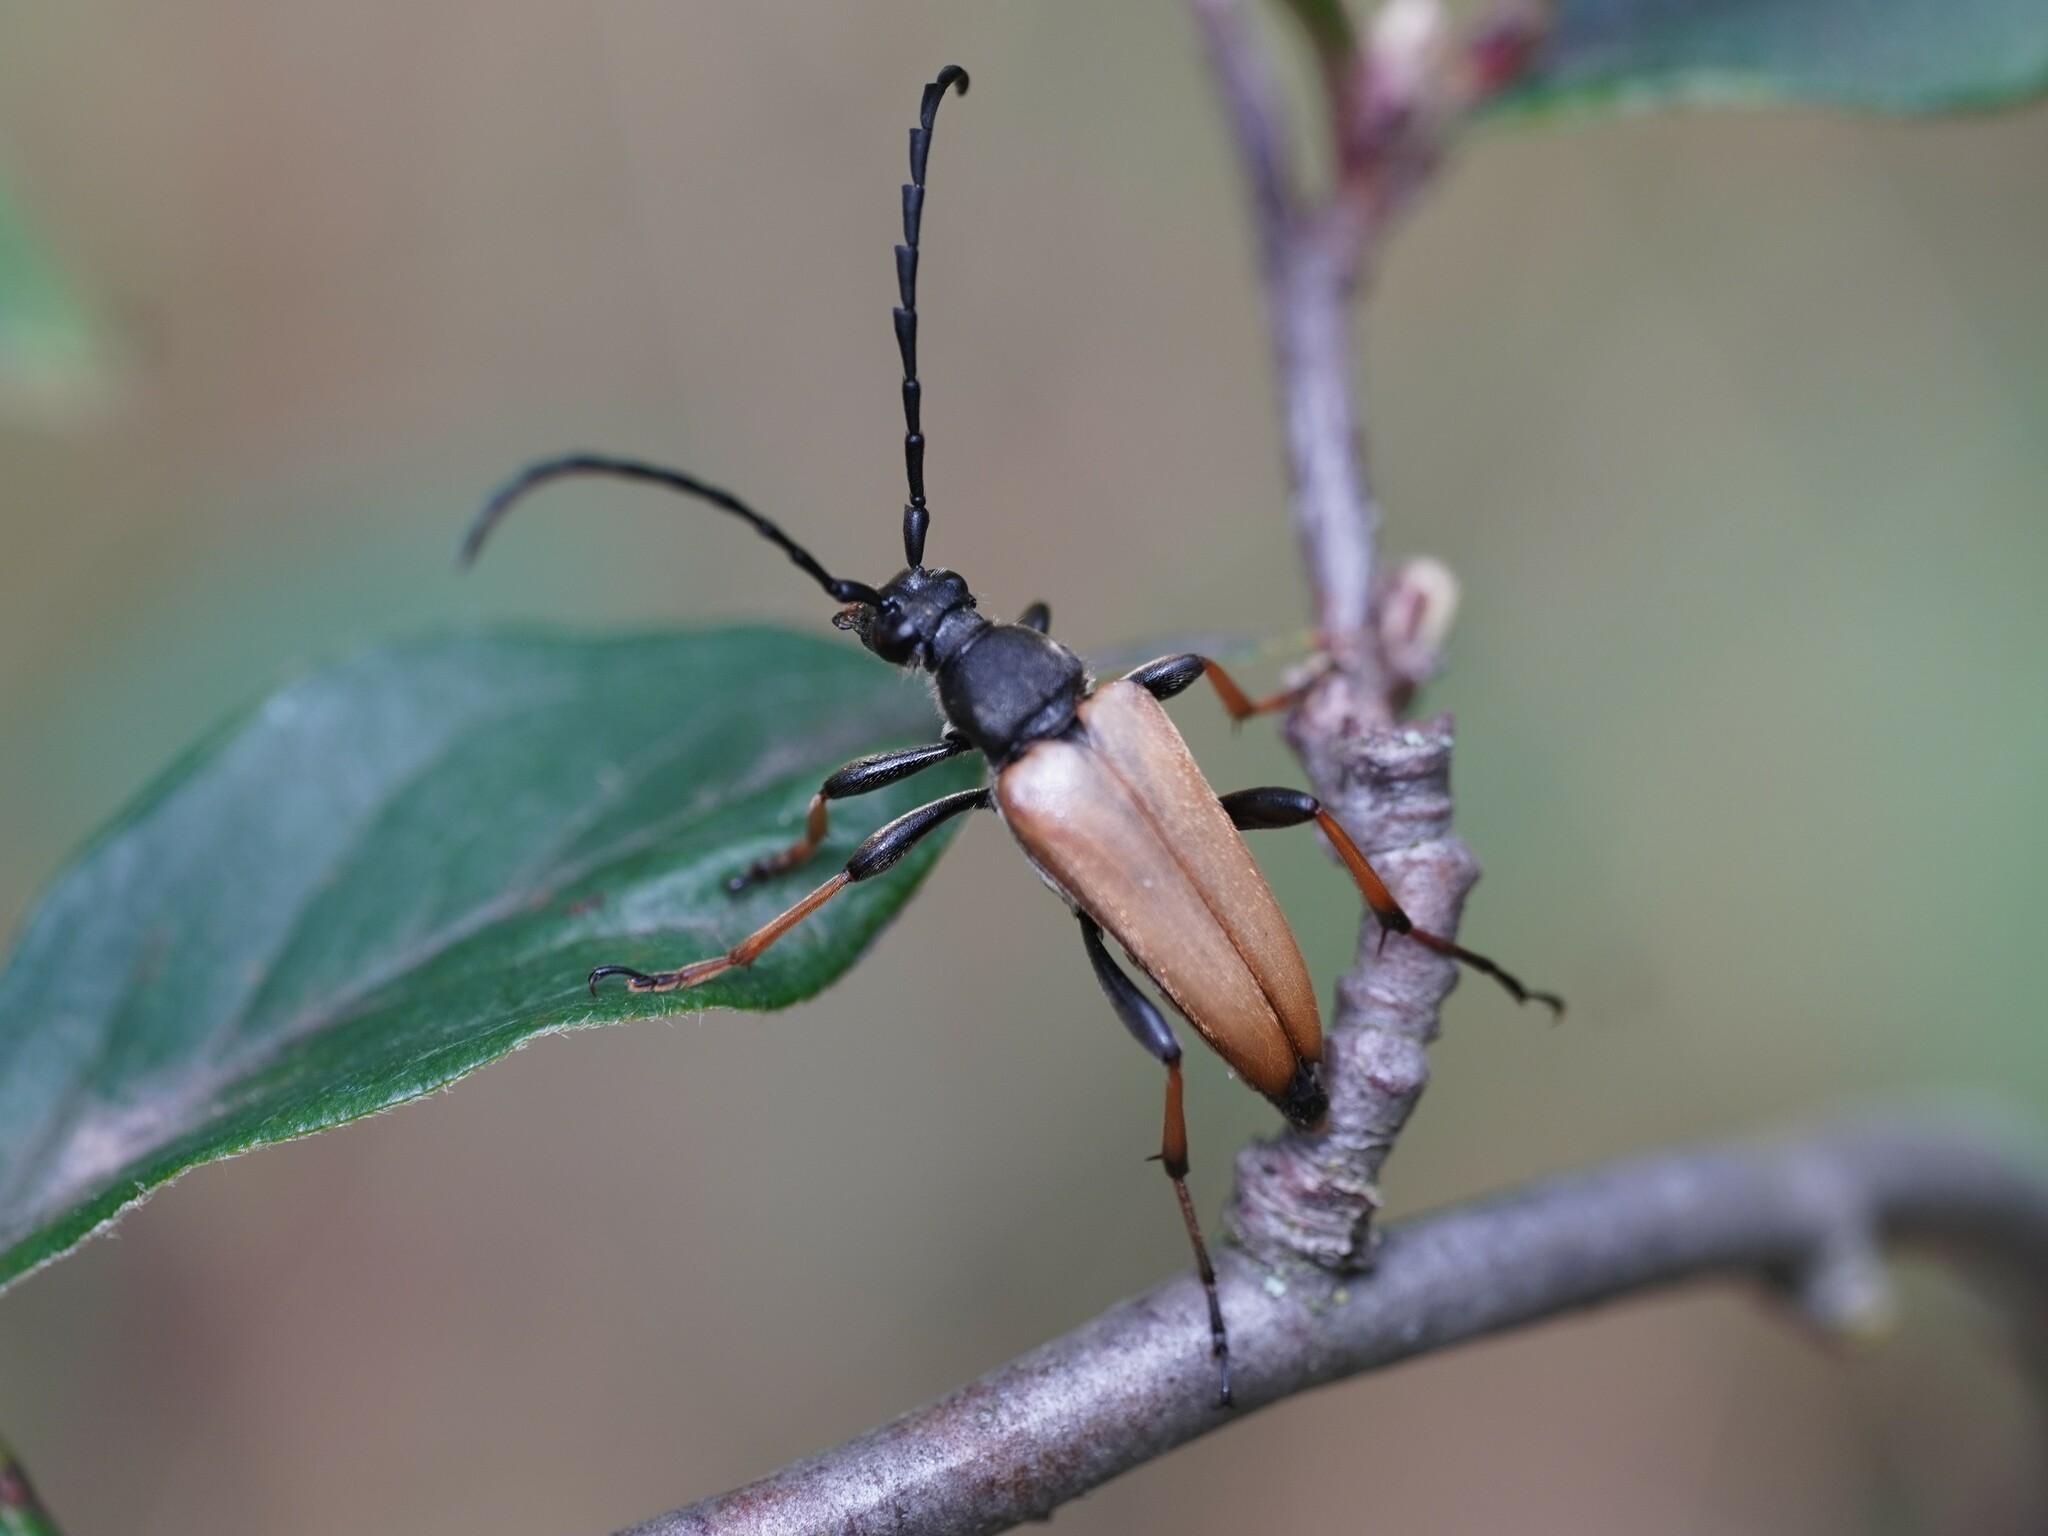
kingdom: Animalia
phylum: Arthropoda
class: Insecta
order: Coleoptera
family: Cerambycidae
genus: Stictoleptura
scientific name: Stictoleptura rubra
